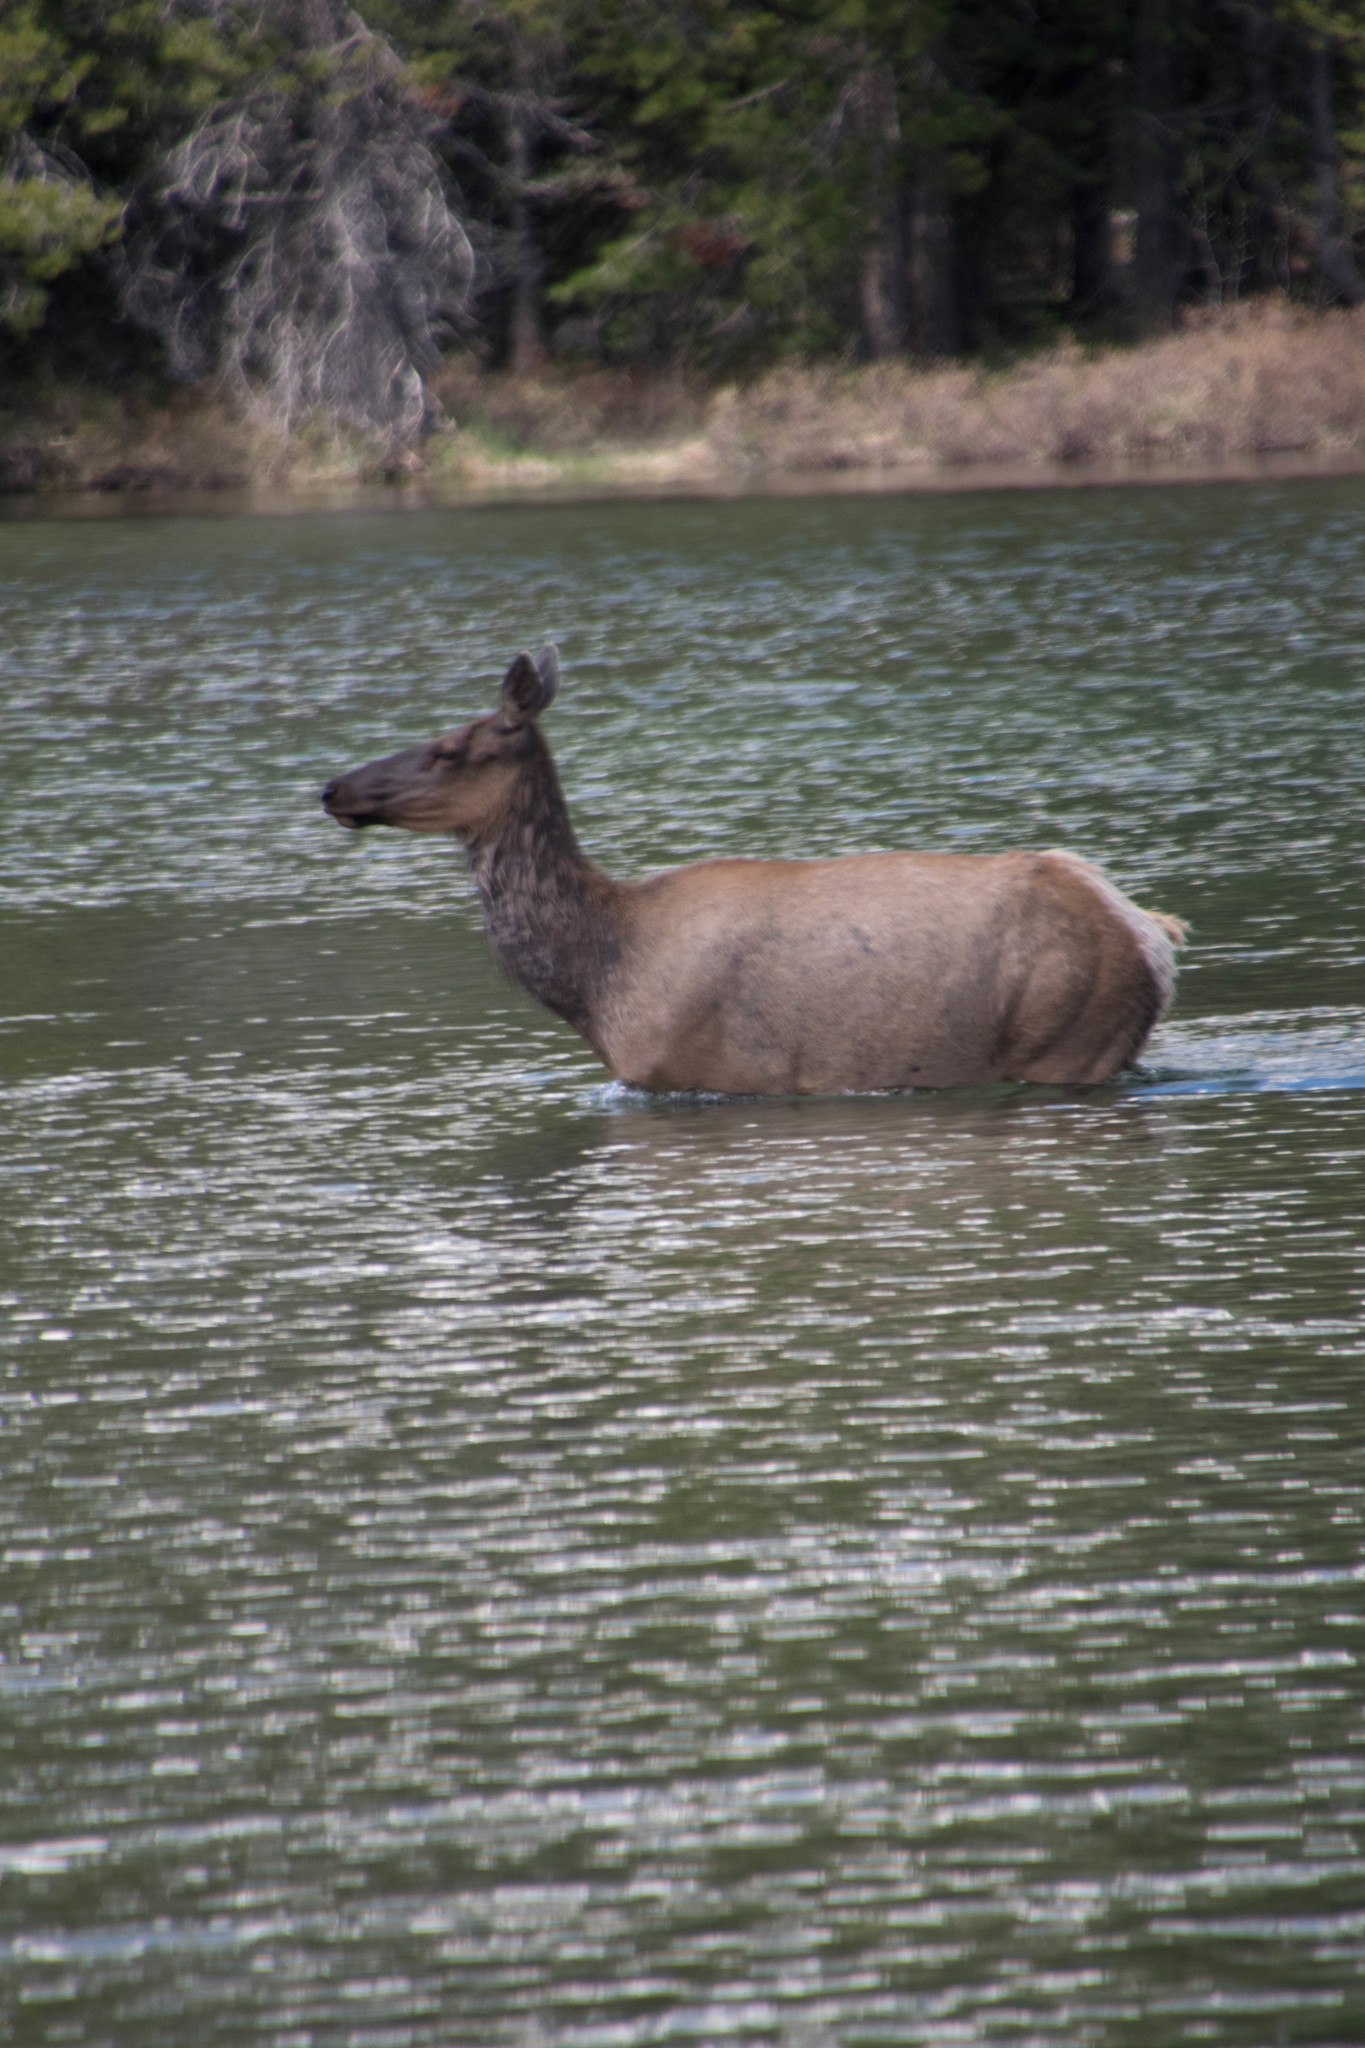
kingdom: Animalia
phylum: Chordata
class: Mammalia
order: Artiodactyla
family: Cervidae
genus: Cervus
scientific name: Cervus elaphus
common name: Red deer
